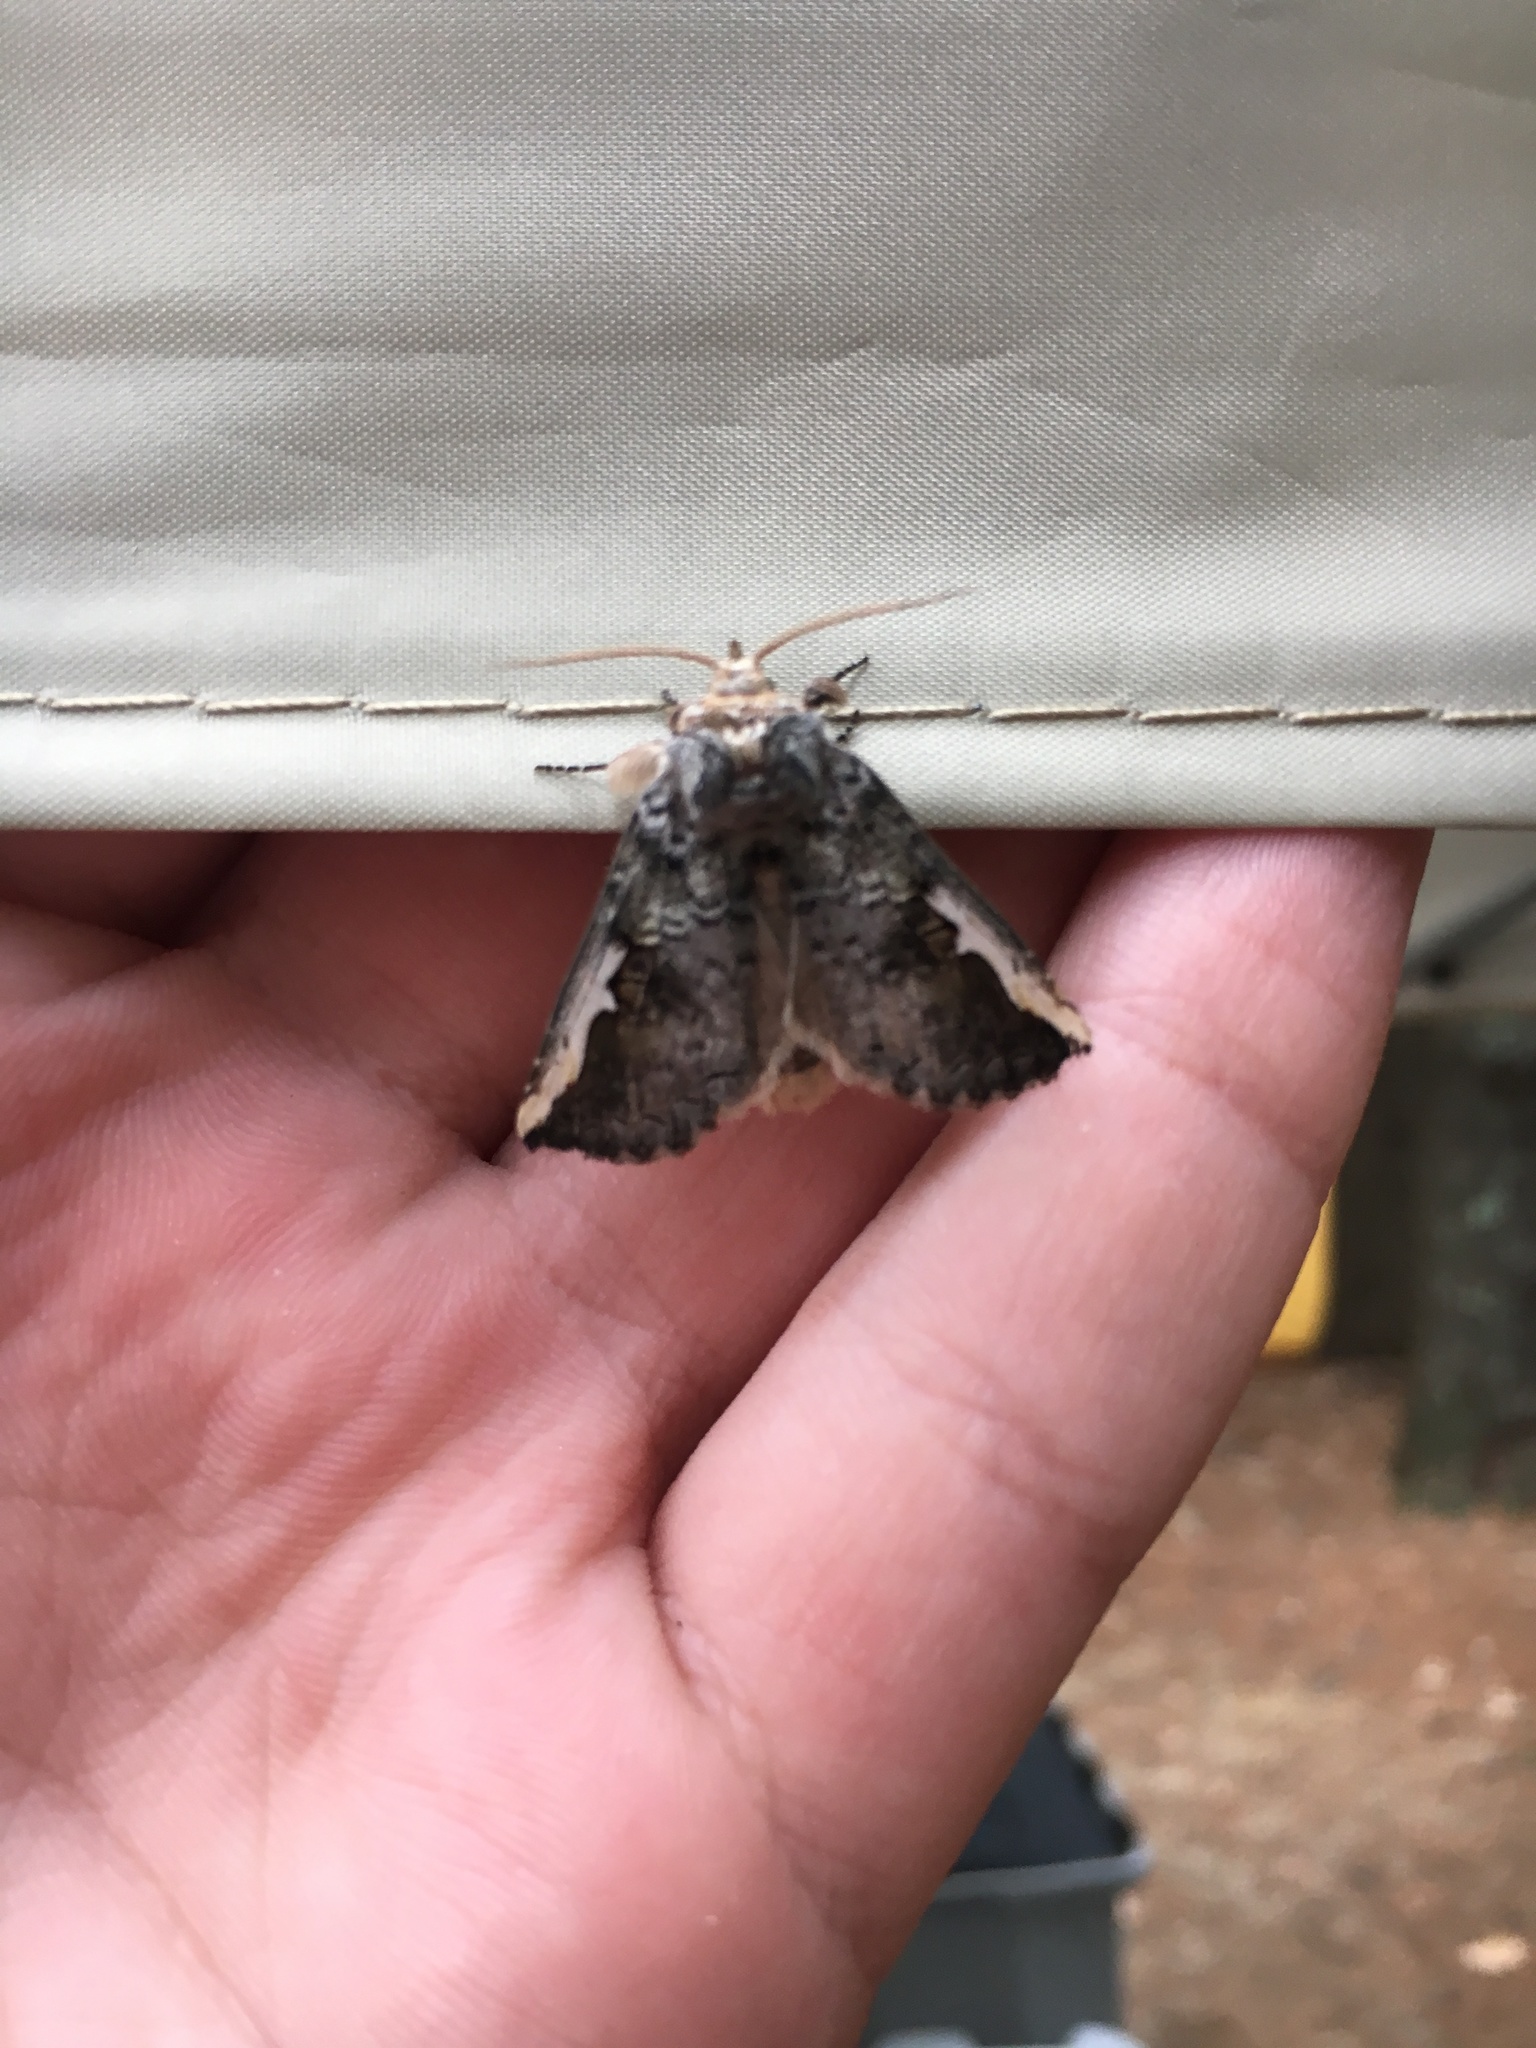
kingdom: Animalia
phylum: Arthropoda
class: Insecta
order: Lepidoptera
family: Notodontidae
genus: Symmerista
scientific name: Symmerista albifrons
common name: White-headed prominent
